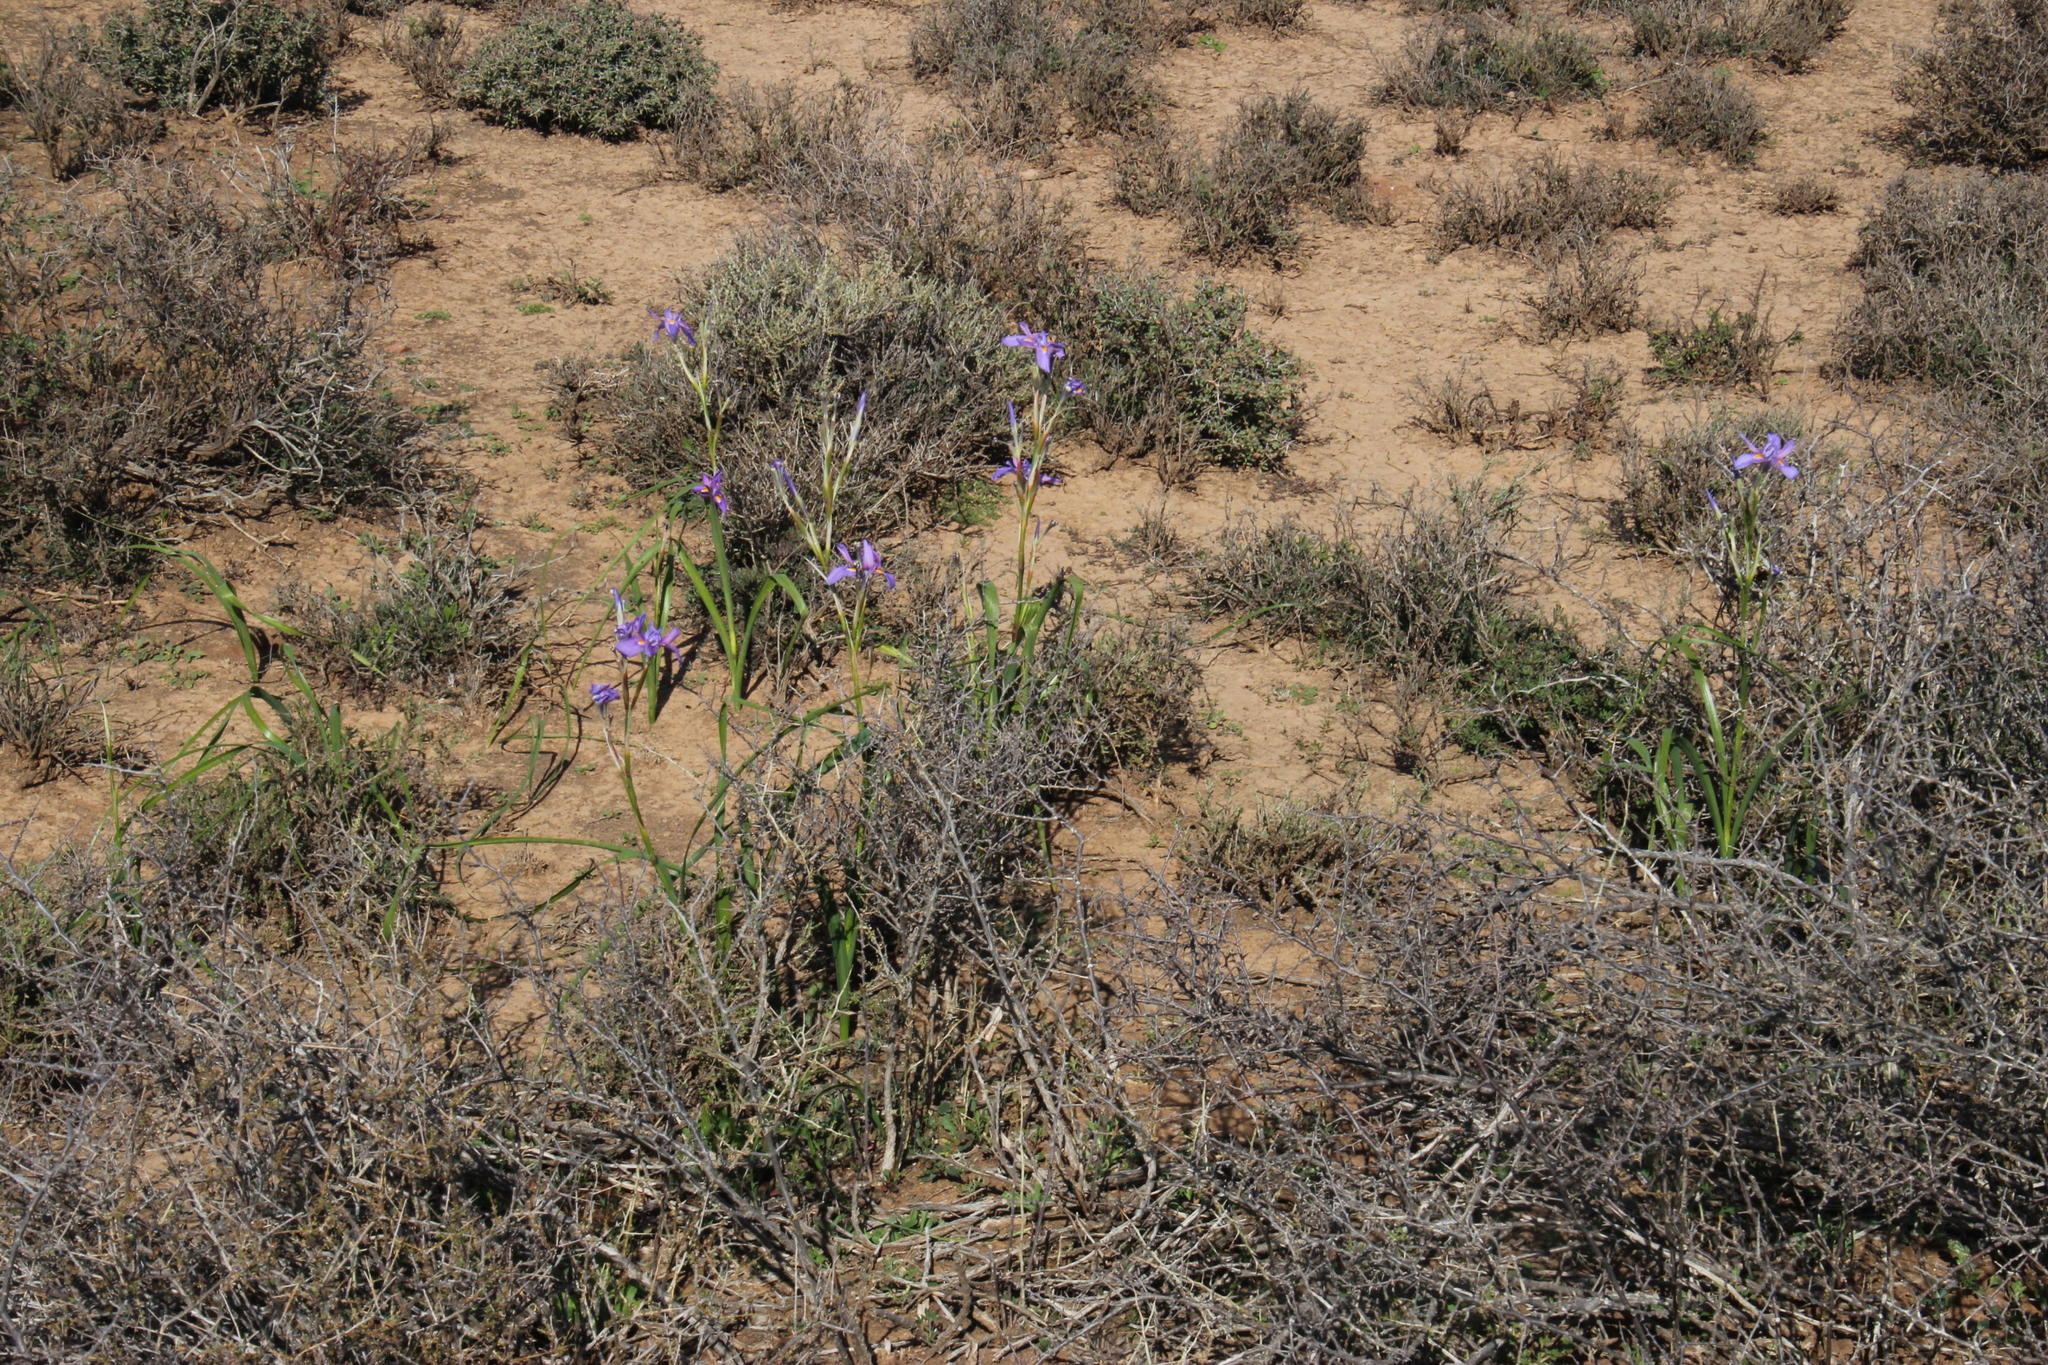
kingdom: Plantae
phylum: Tracheophyta
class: Liliopsida
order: Asparagales
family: Iridaceae
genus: Moraea
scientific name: Moraea polystachya
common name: Blue-tulip
